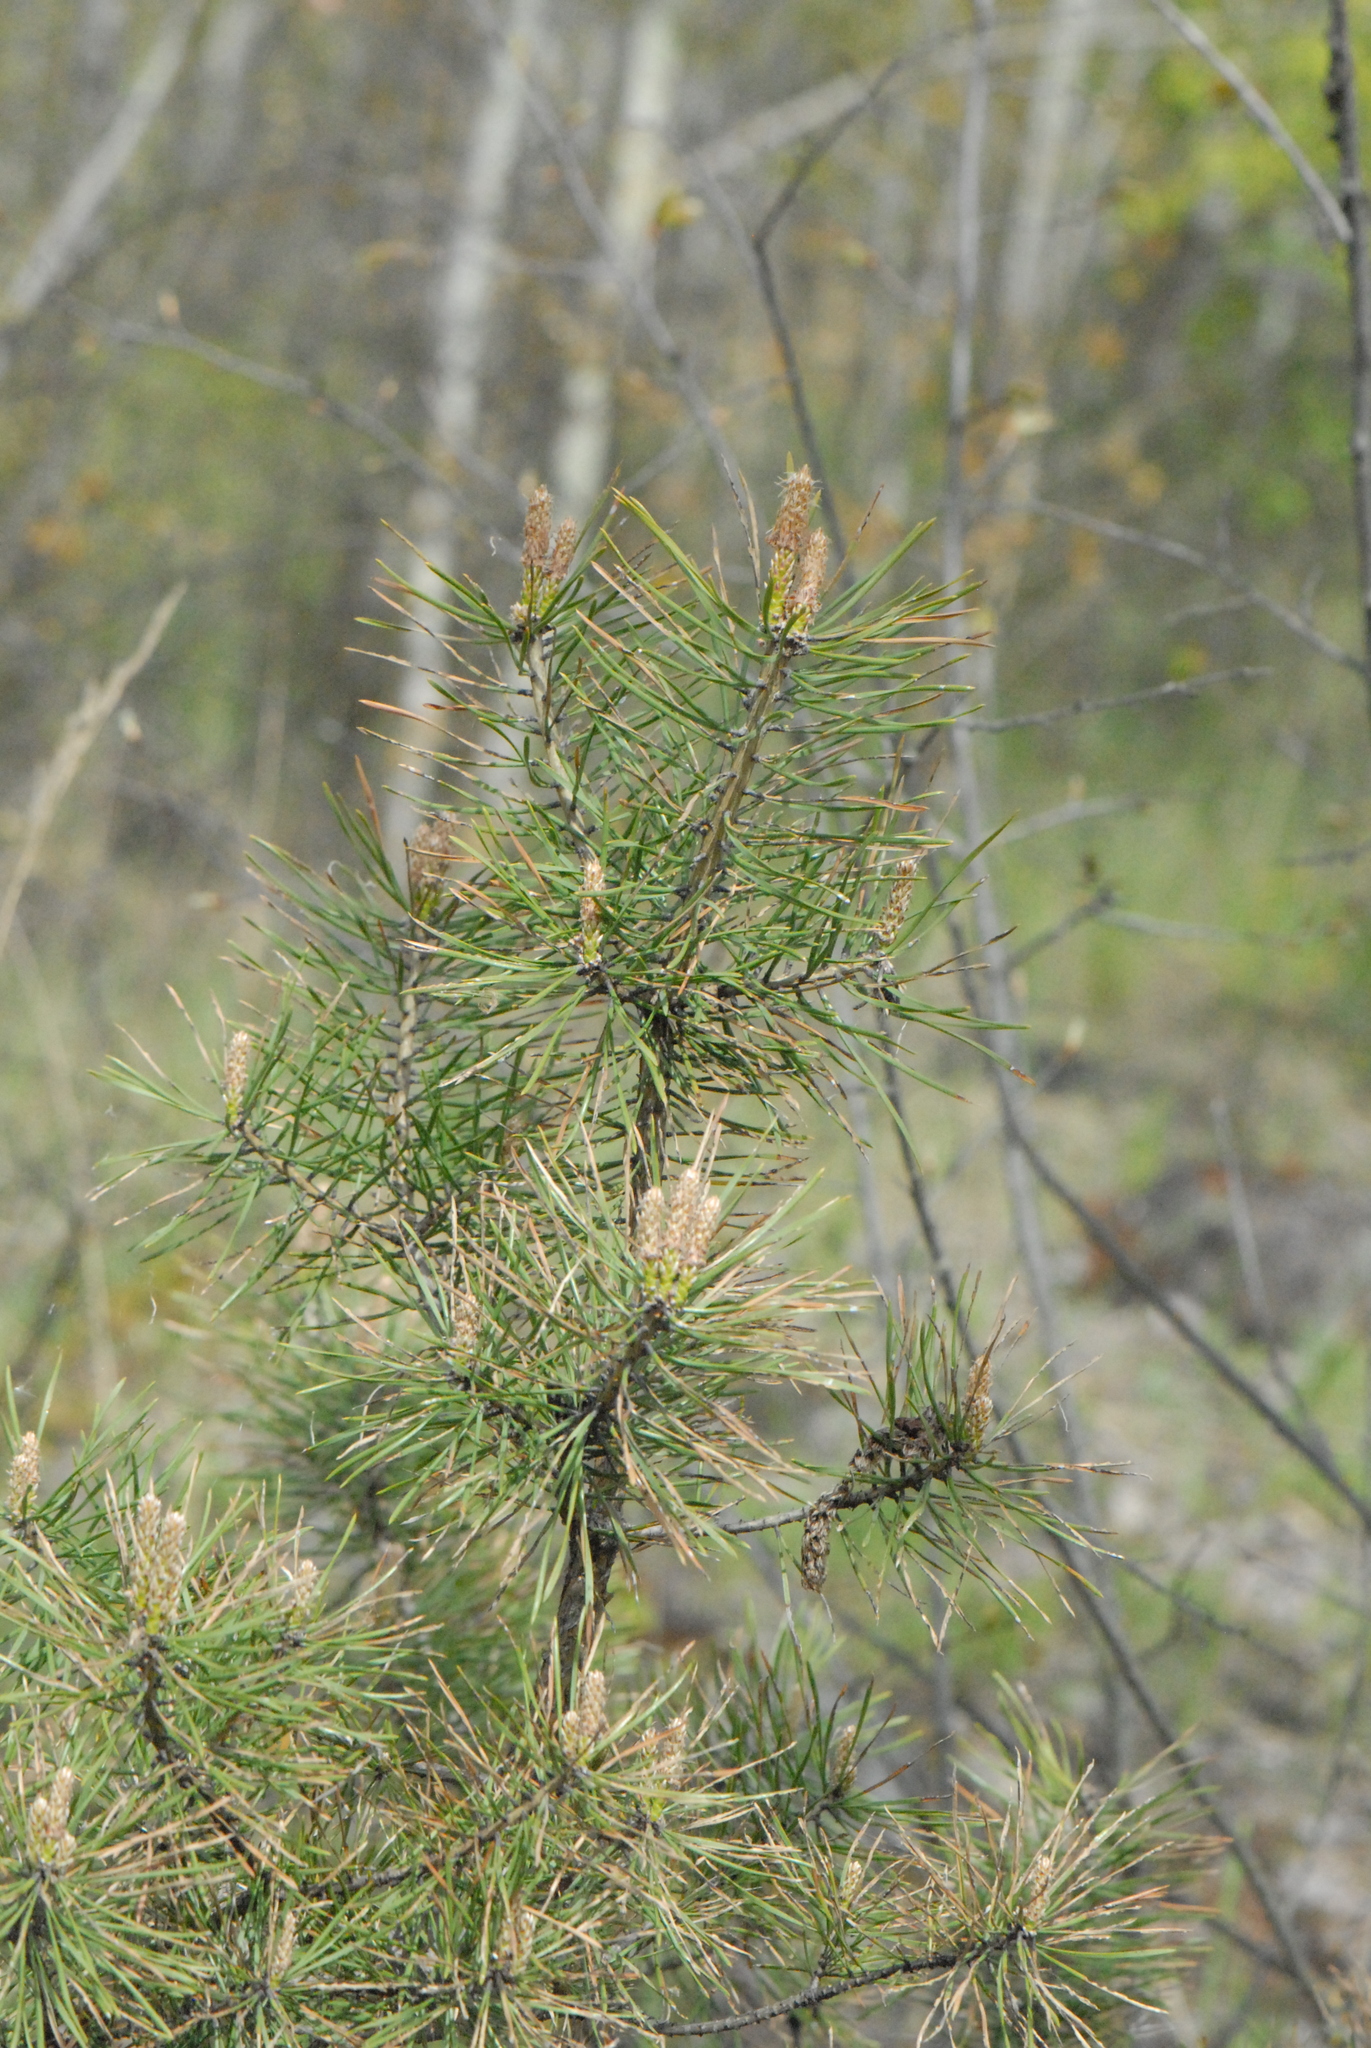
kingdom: Plantae
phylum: Tracheophyta
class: Pinopsida
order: Pinales
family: Pinaceae
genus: Pinus
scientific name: Pinus sylvestris
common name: Scots pine
